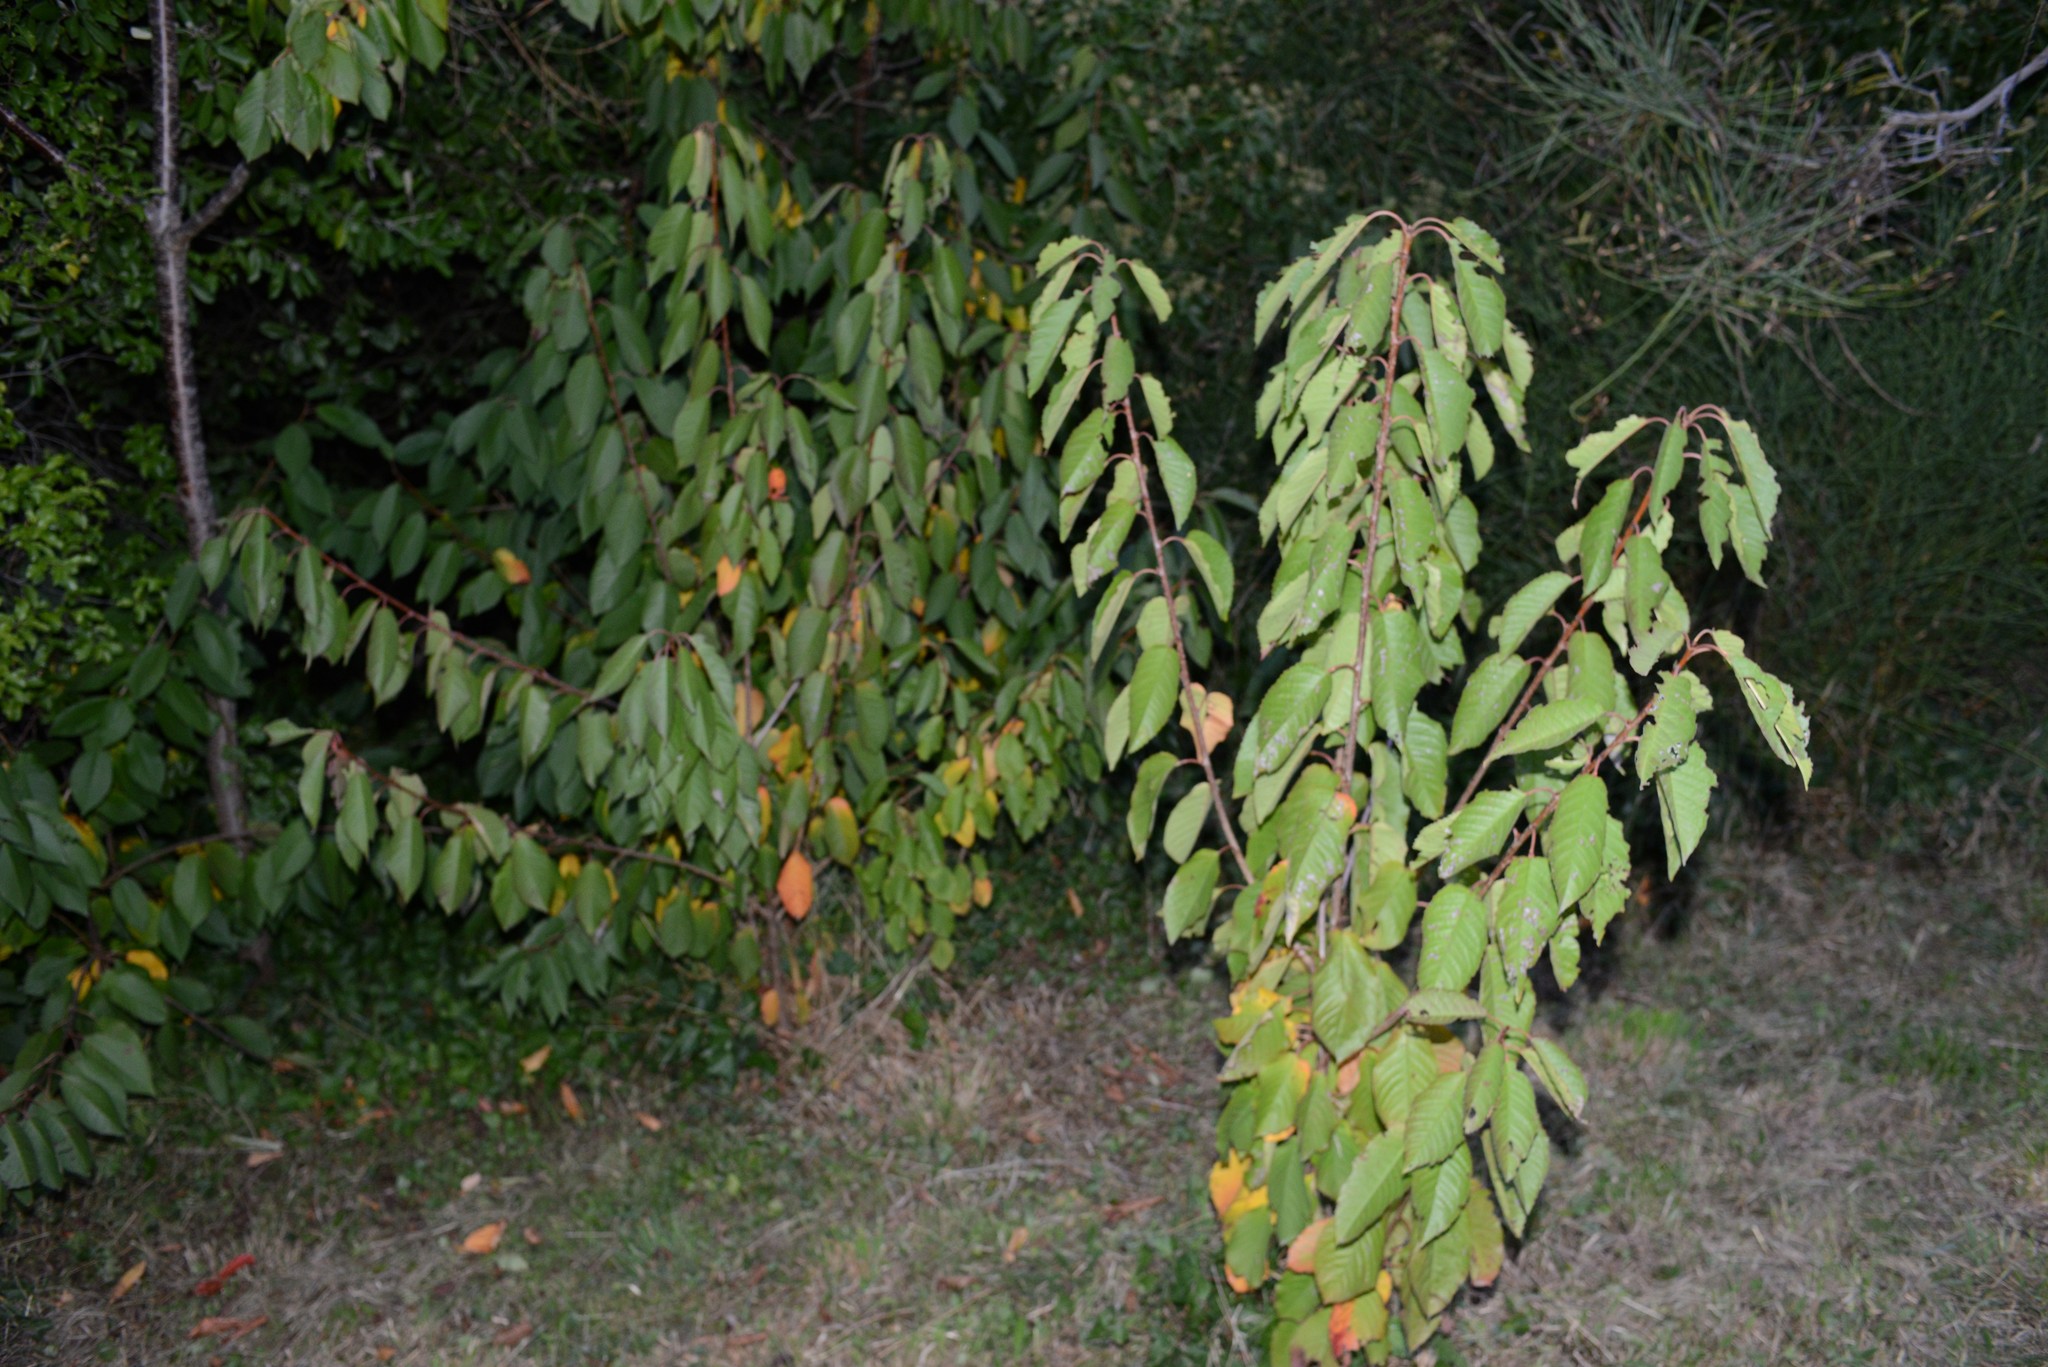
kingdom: Plantae
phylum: Tracheophyta
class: Magnoliopsida
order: Rosales
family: Rosaceae
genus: Prunus
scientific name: Prunus avium
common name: Sweet cherry
